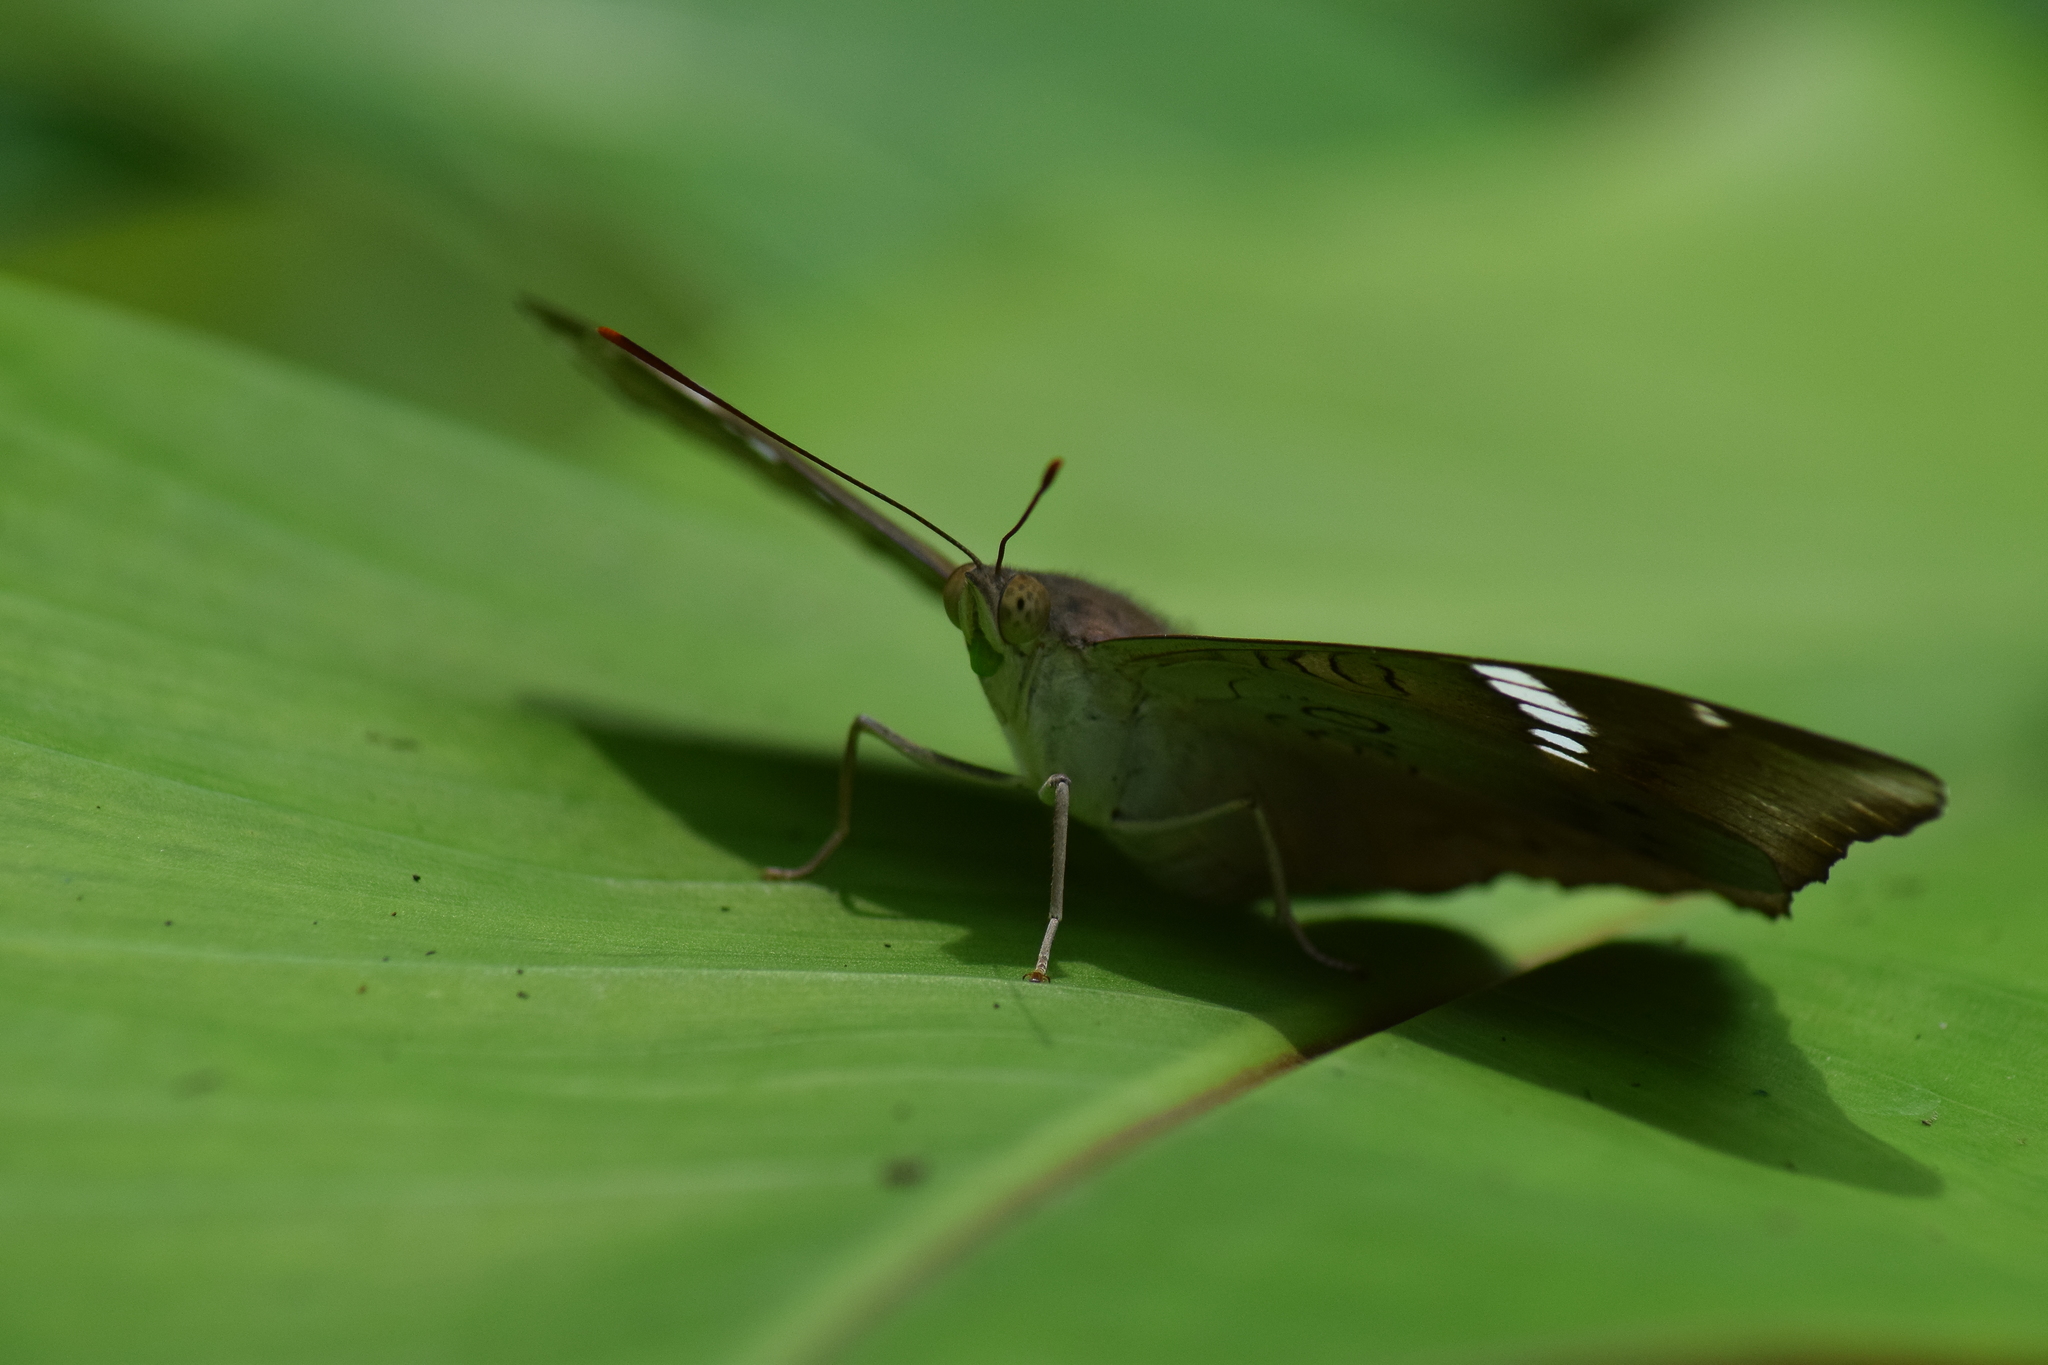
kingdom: Animalia
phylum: Arthropoda
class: Insecta
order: Lepidoptera
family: Nymphalidae
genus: Euthalia
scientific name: Euthalia aconthea
